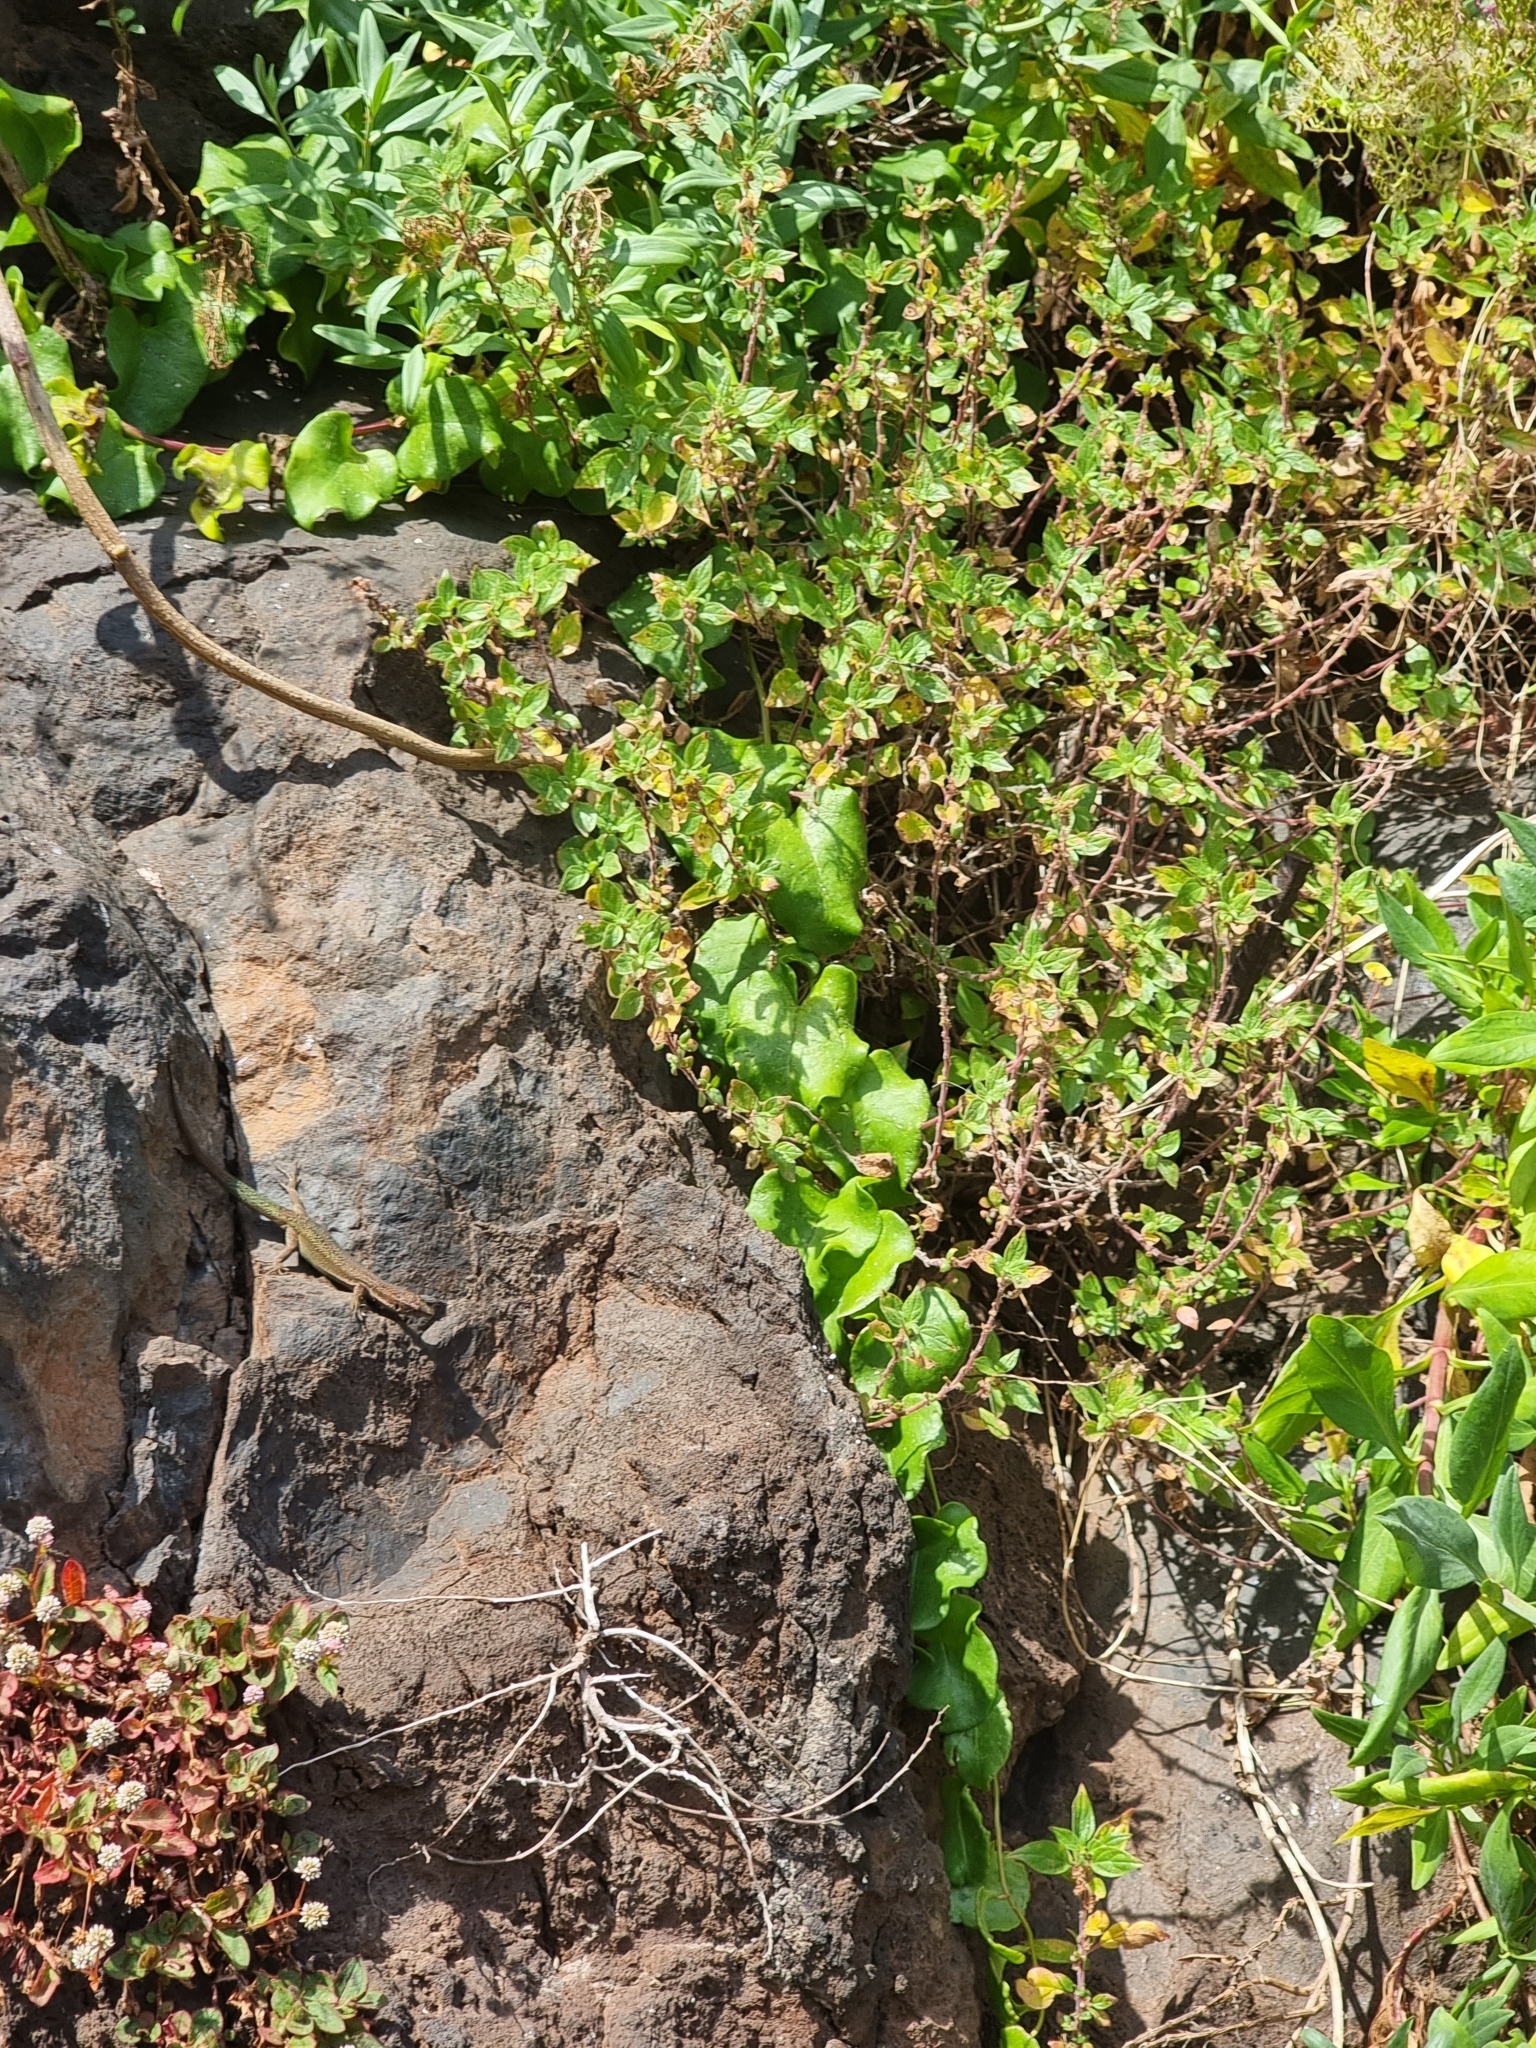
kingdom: Plantae
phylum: Tracheophyta
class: Magnoliopsida
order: Caryophyllales
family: Basellaceae
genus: Anredera
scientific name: Anredera cordifolia
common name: Heartleaf madeiravine
